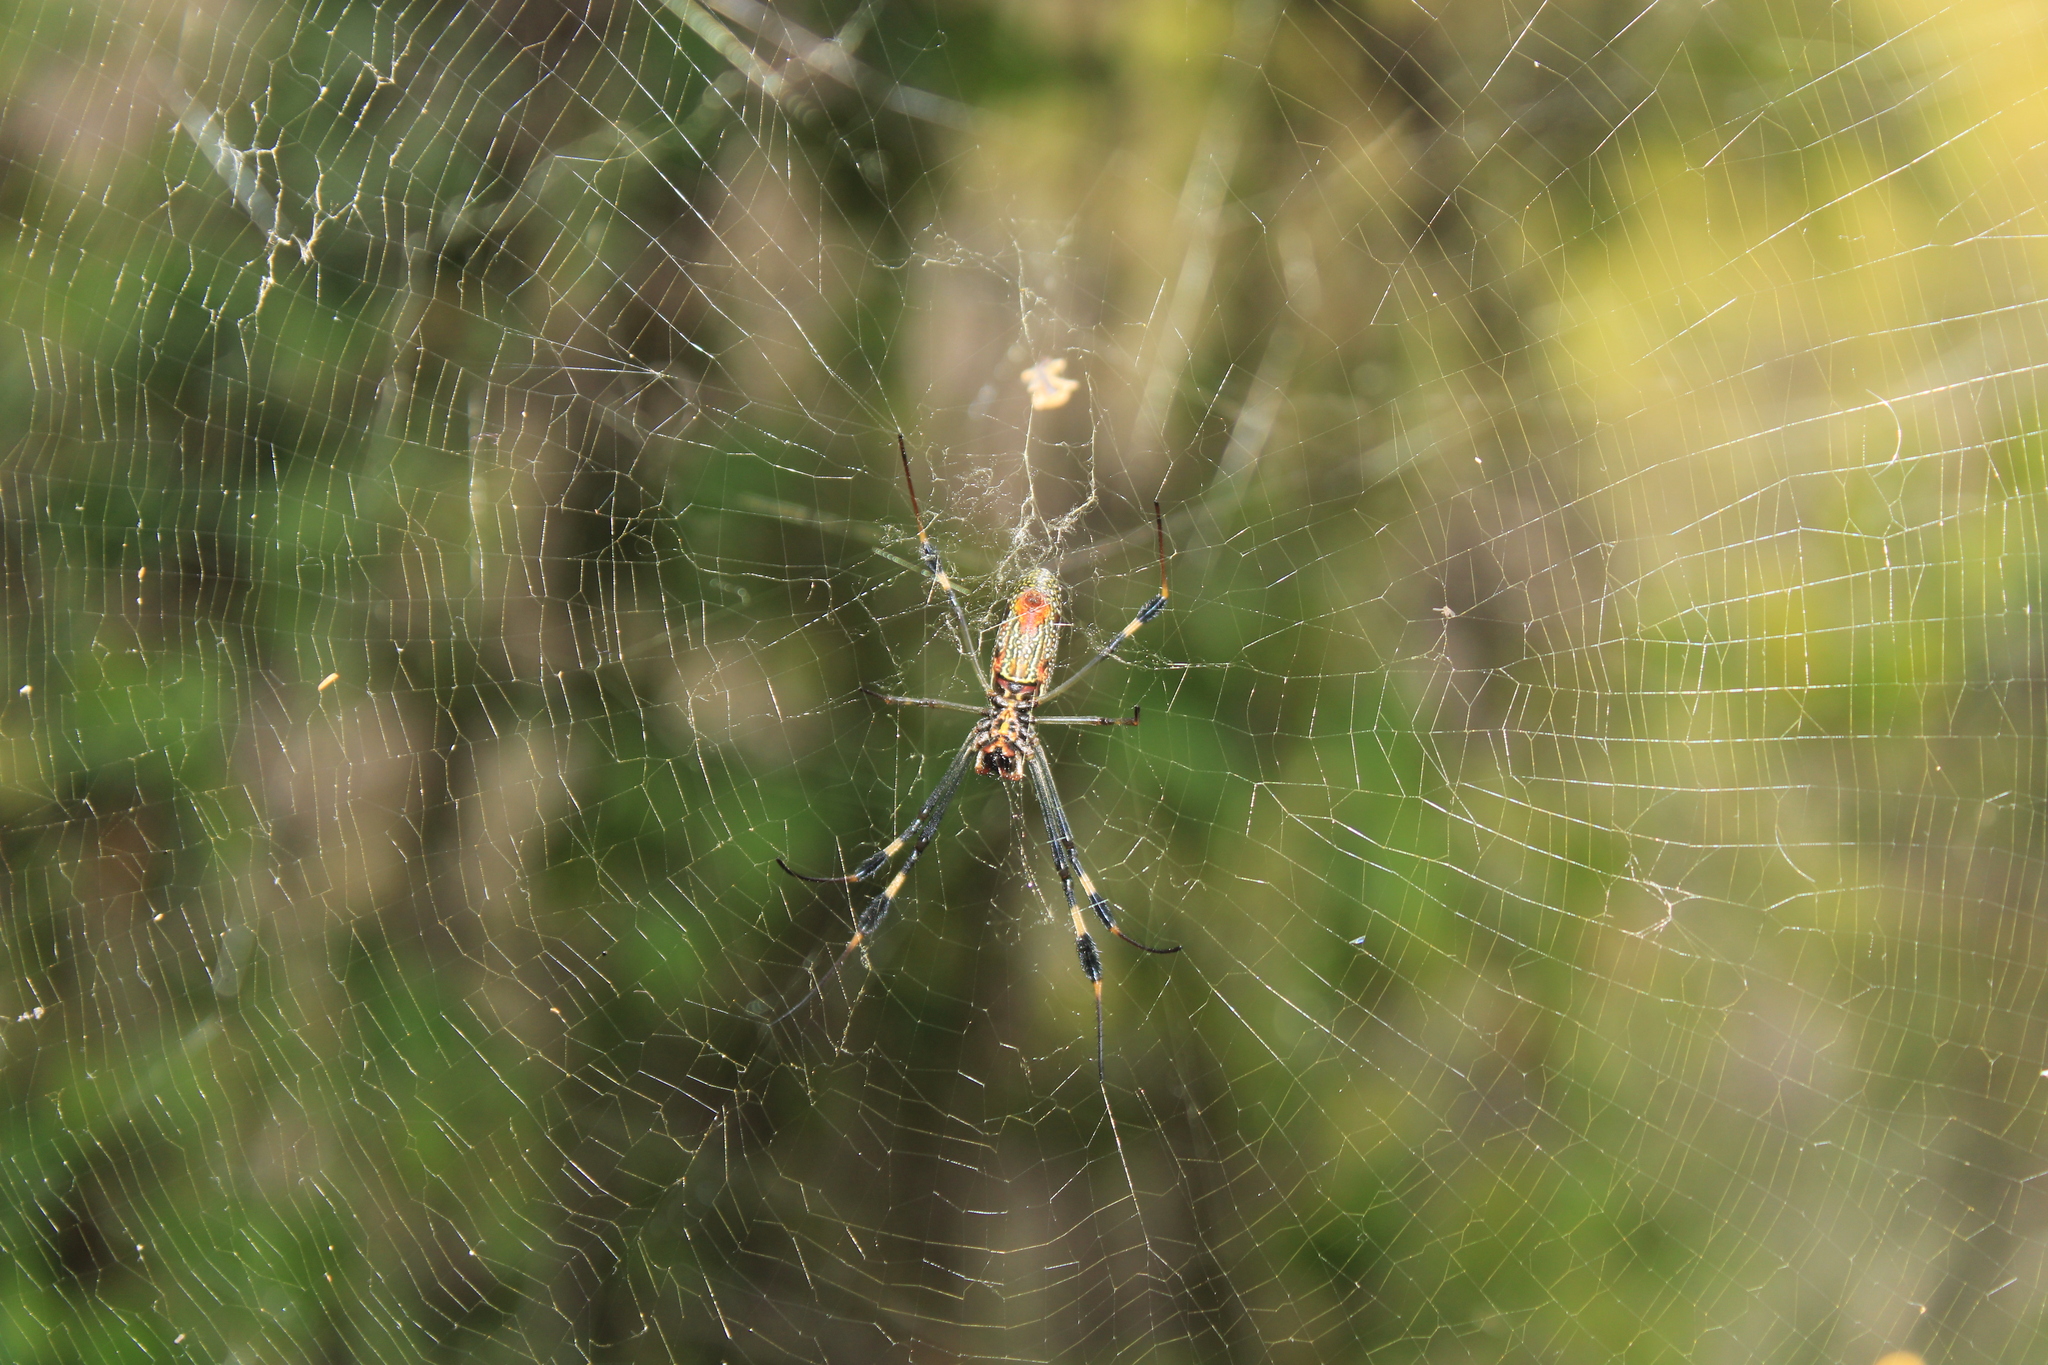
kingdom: Animalia
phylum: Arthropoda
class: Arachnida
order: Araneae
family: Araneidae
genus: Trichonephila
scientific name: Trichonephila clavipes
